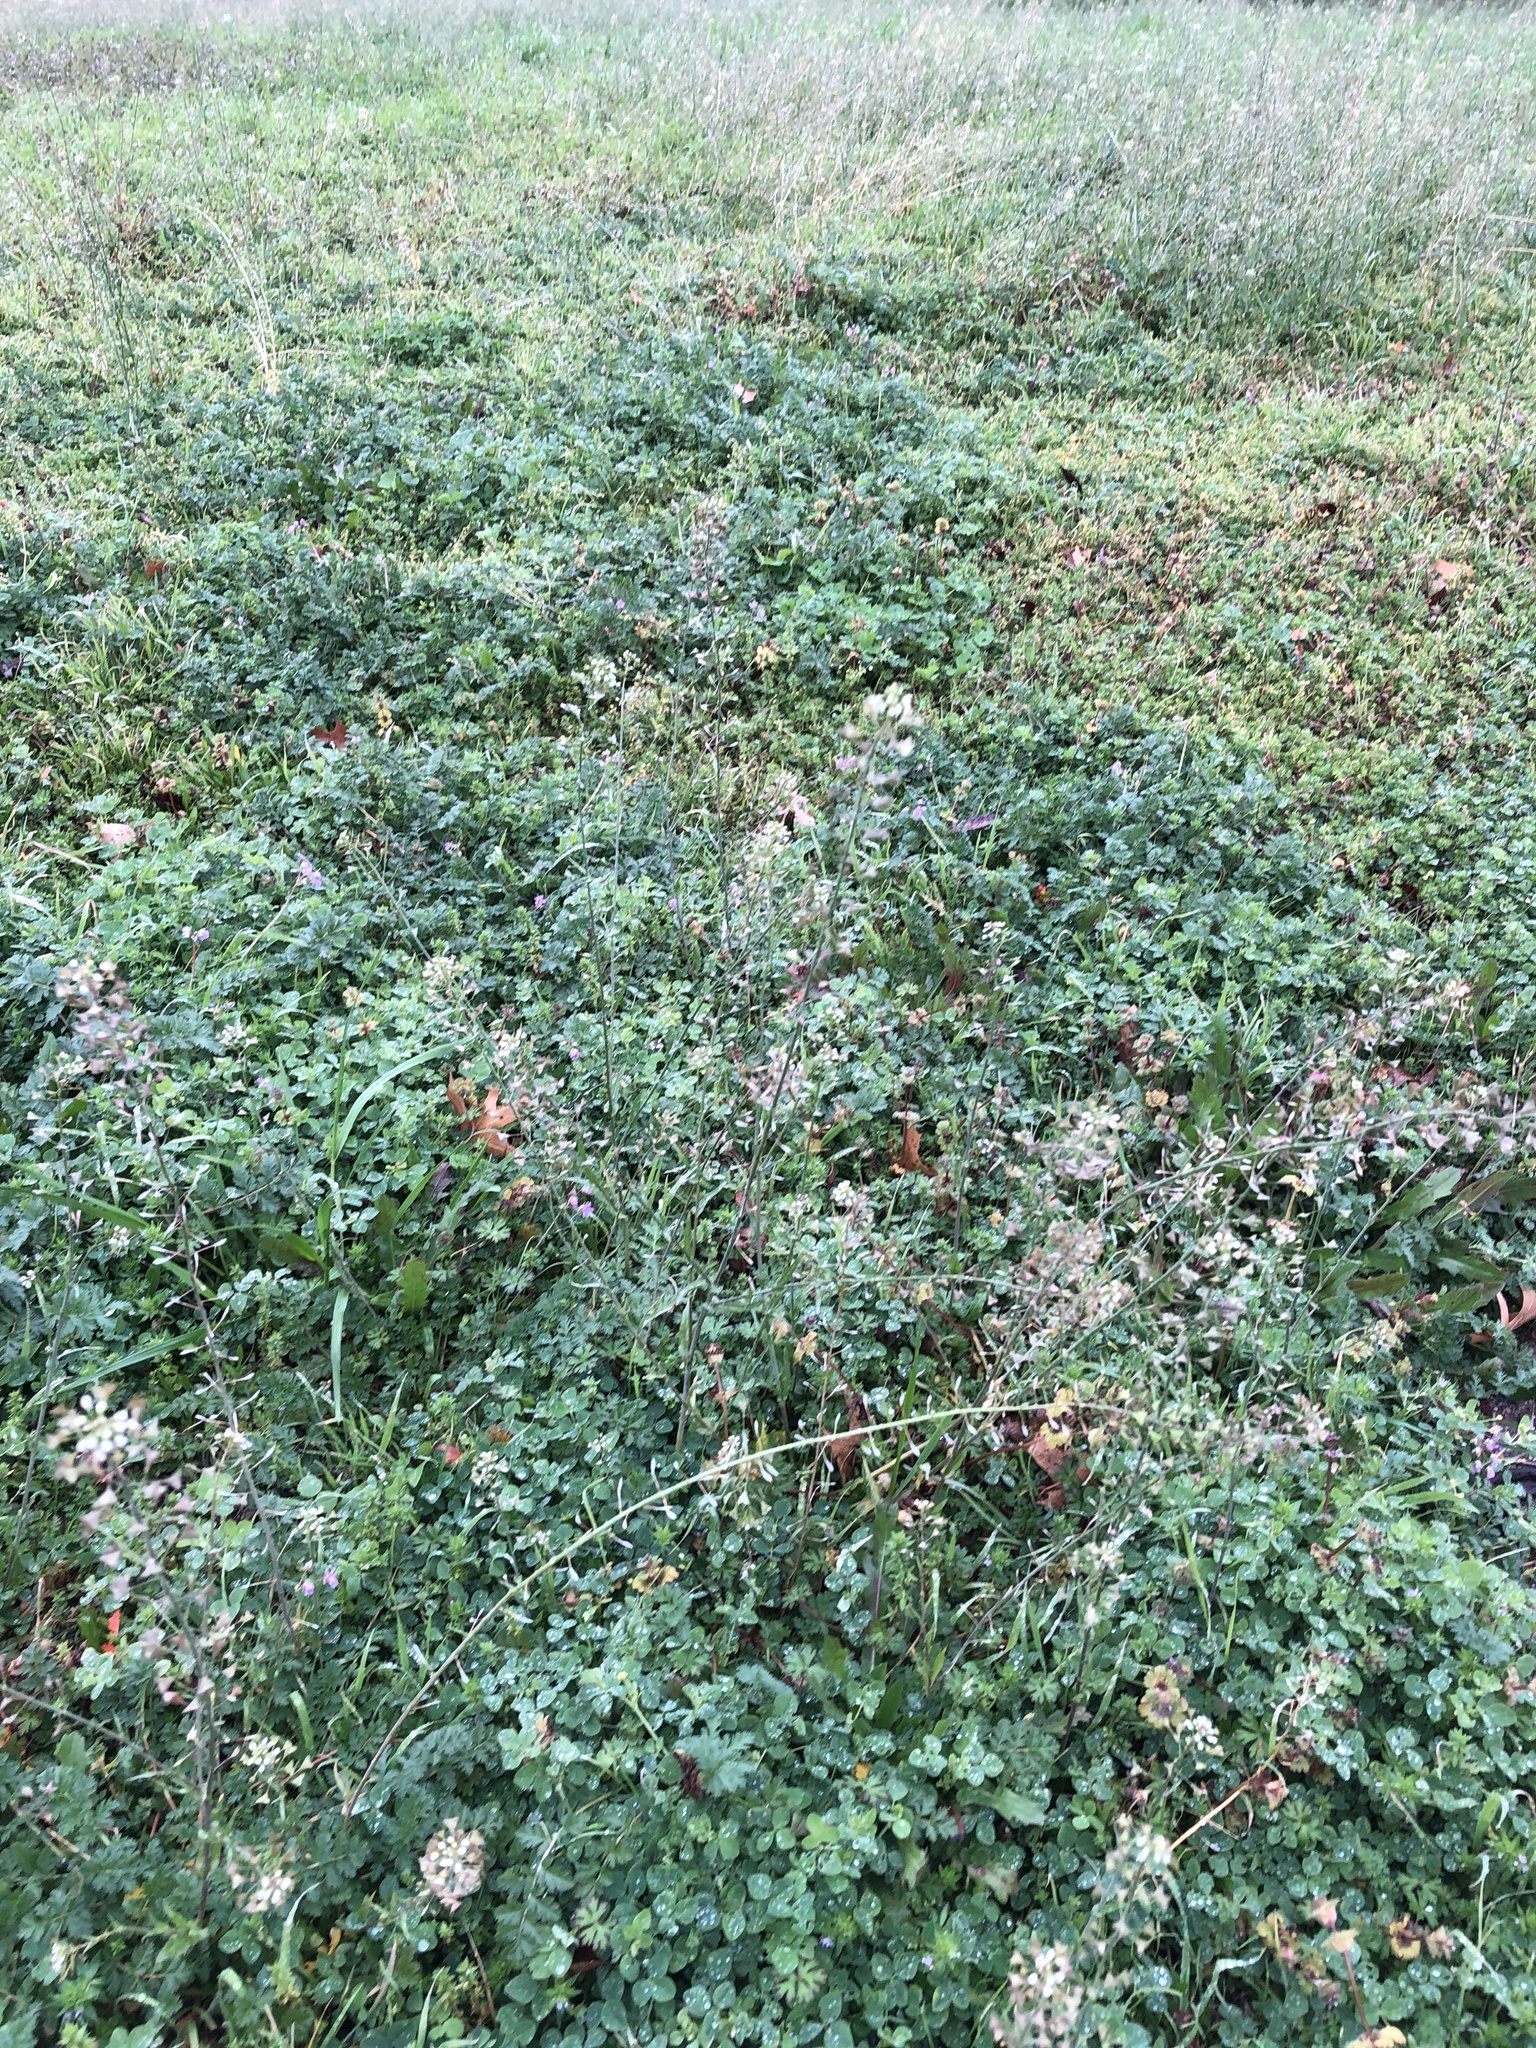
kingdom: Plantae
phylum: Tracheophyta
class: Magnoliopsida
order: Brassicales
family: Brassicaceae
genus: Capsella
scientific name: Capsella bursa-pastoris
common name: Shepherd's purse
